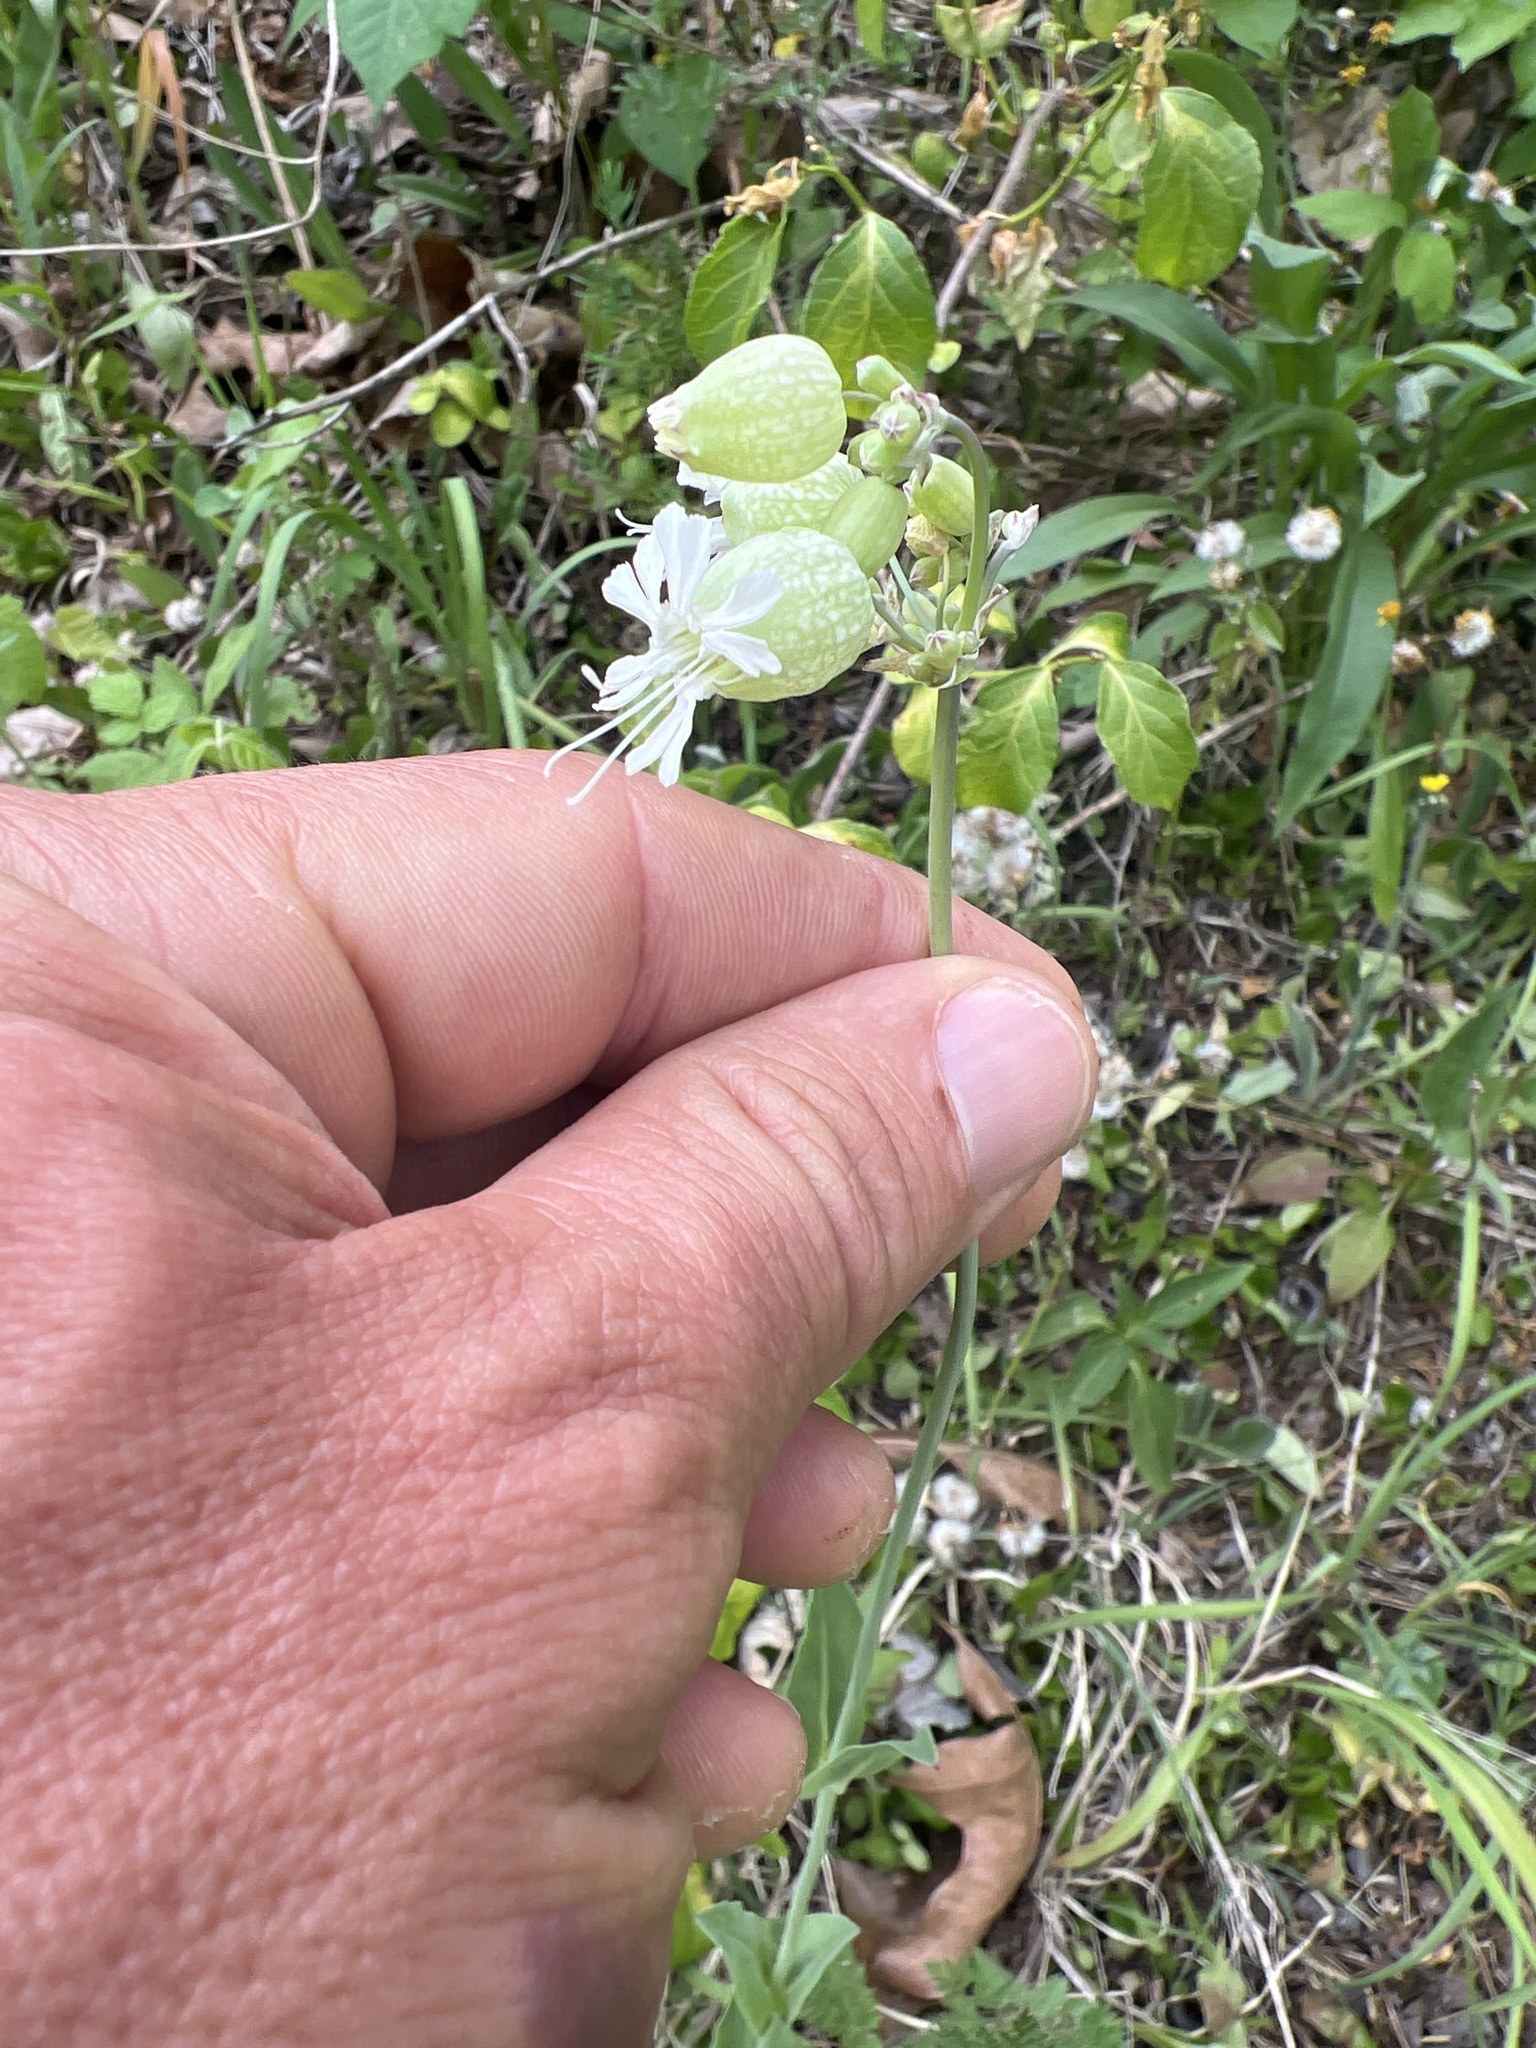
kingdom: Plantae
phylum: Tracheophyta
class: Magnoliopsida
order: Caryophyllales
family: Caryophyllaceae
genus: Silene
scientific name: Silene vulgaris
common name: Bladder campion
